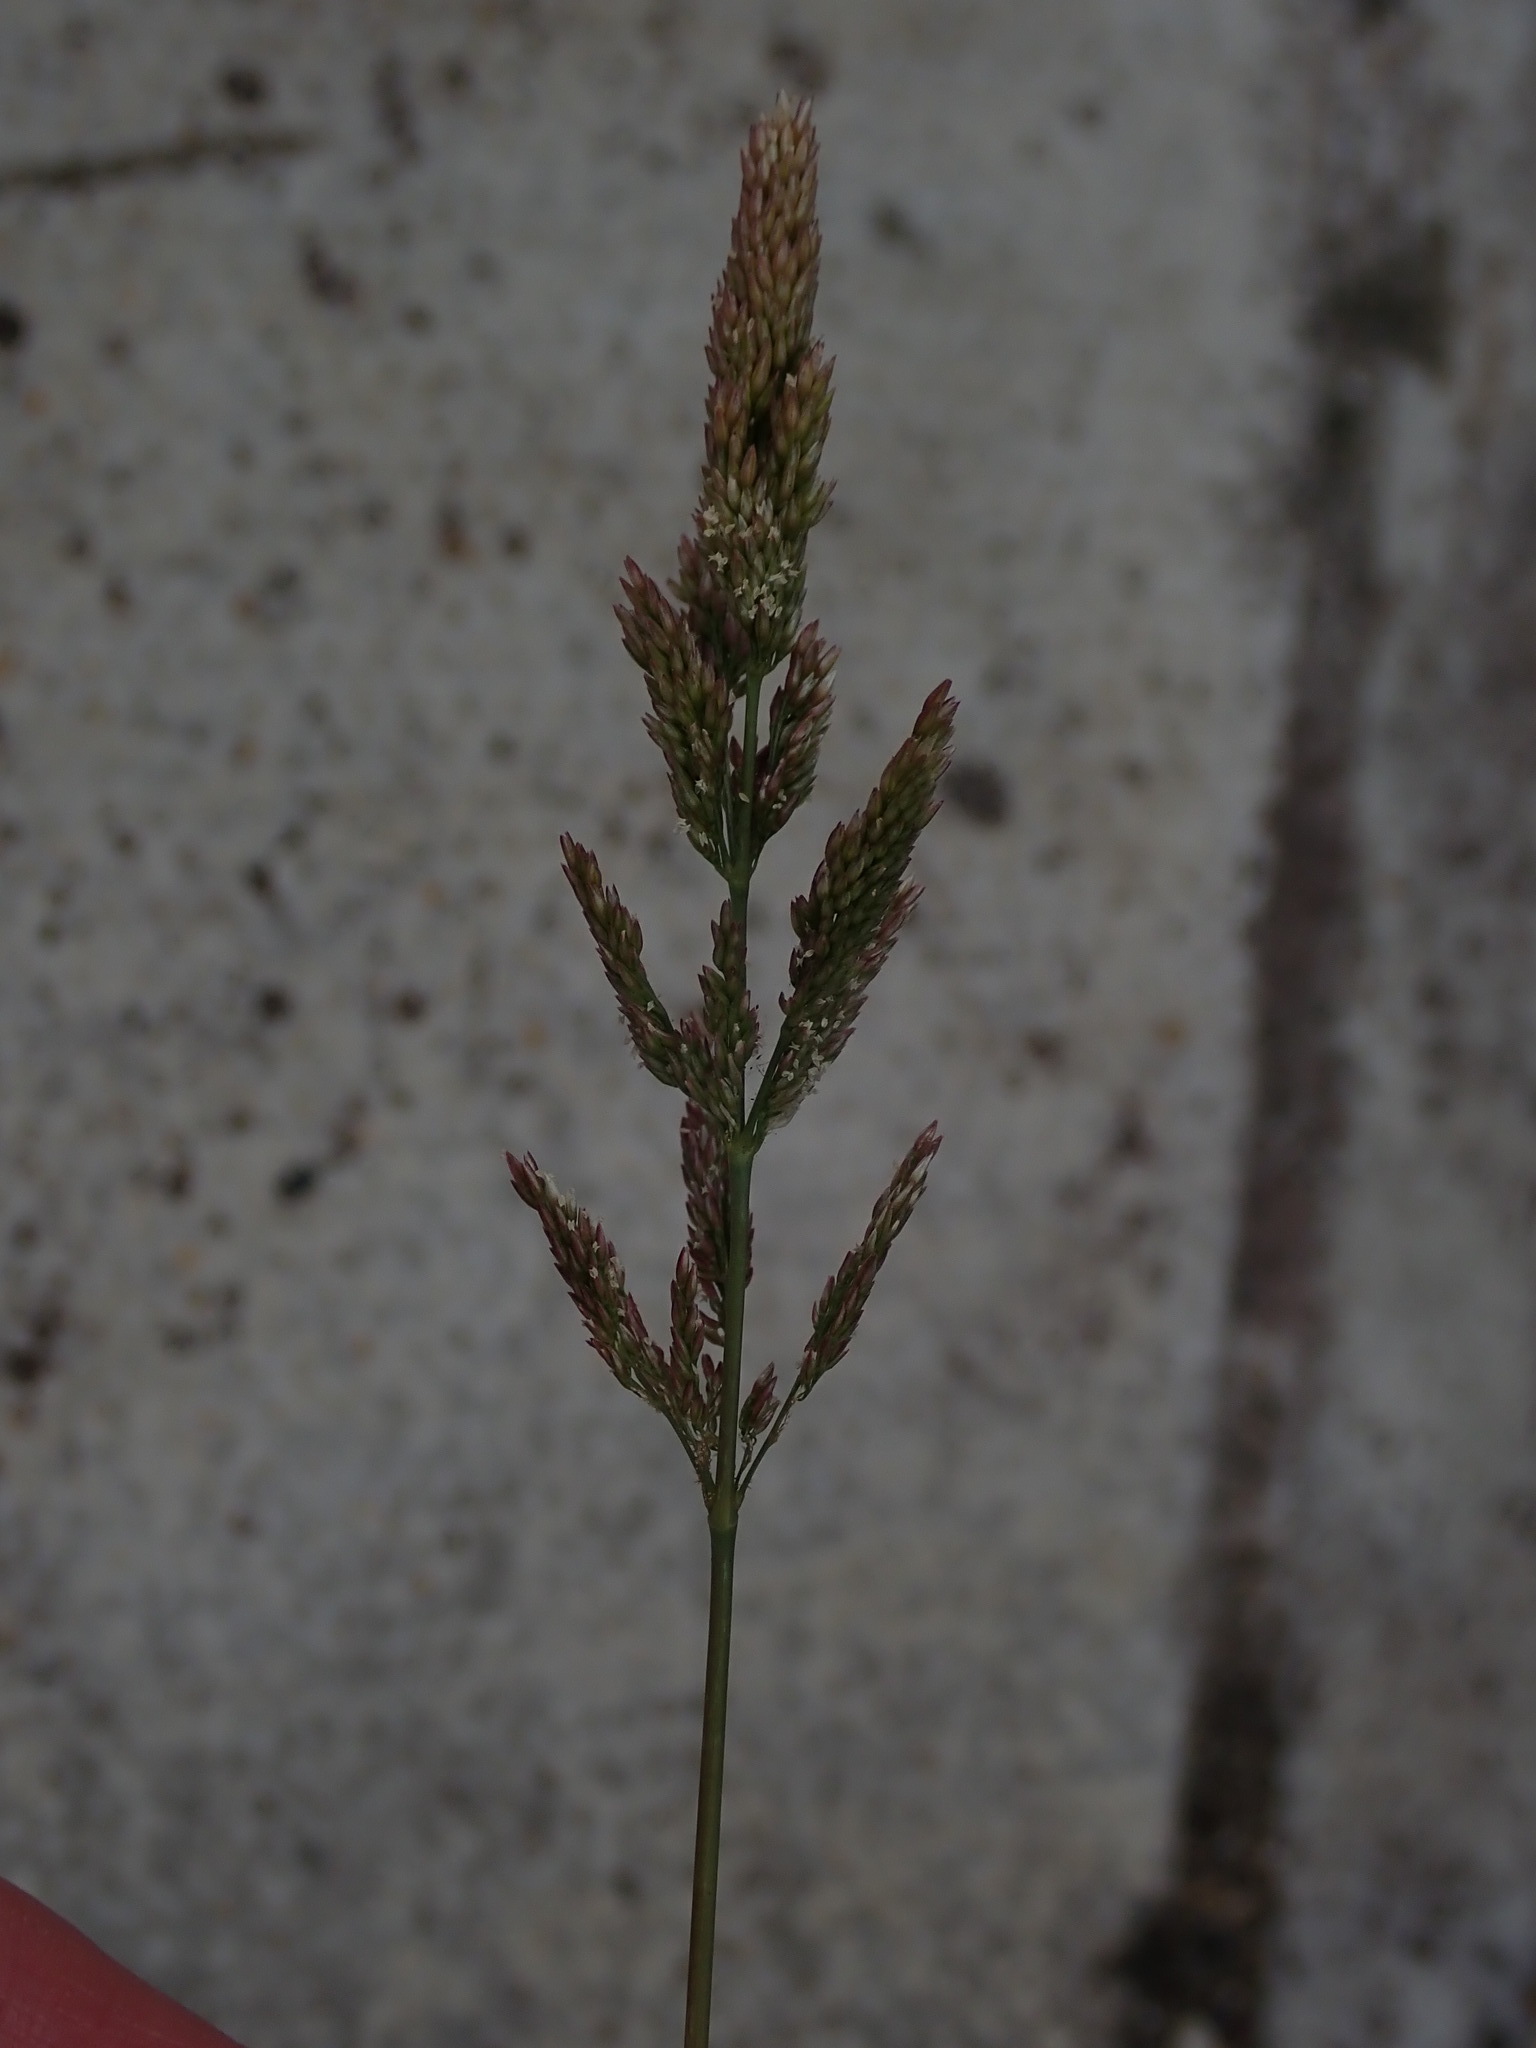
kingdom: Plantae
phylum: Tracheophyta
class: Liliopsida
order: Poales
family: Poaceae
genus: Polypogon
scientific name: Polypogon viridis
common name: Water bent
